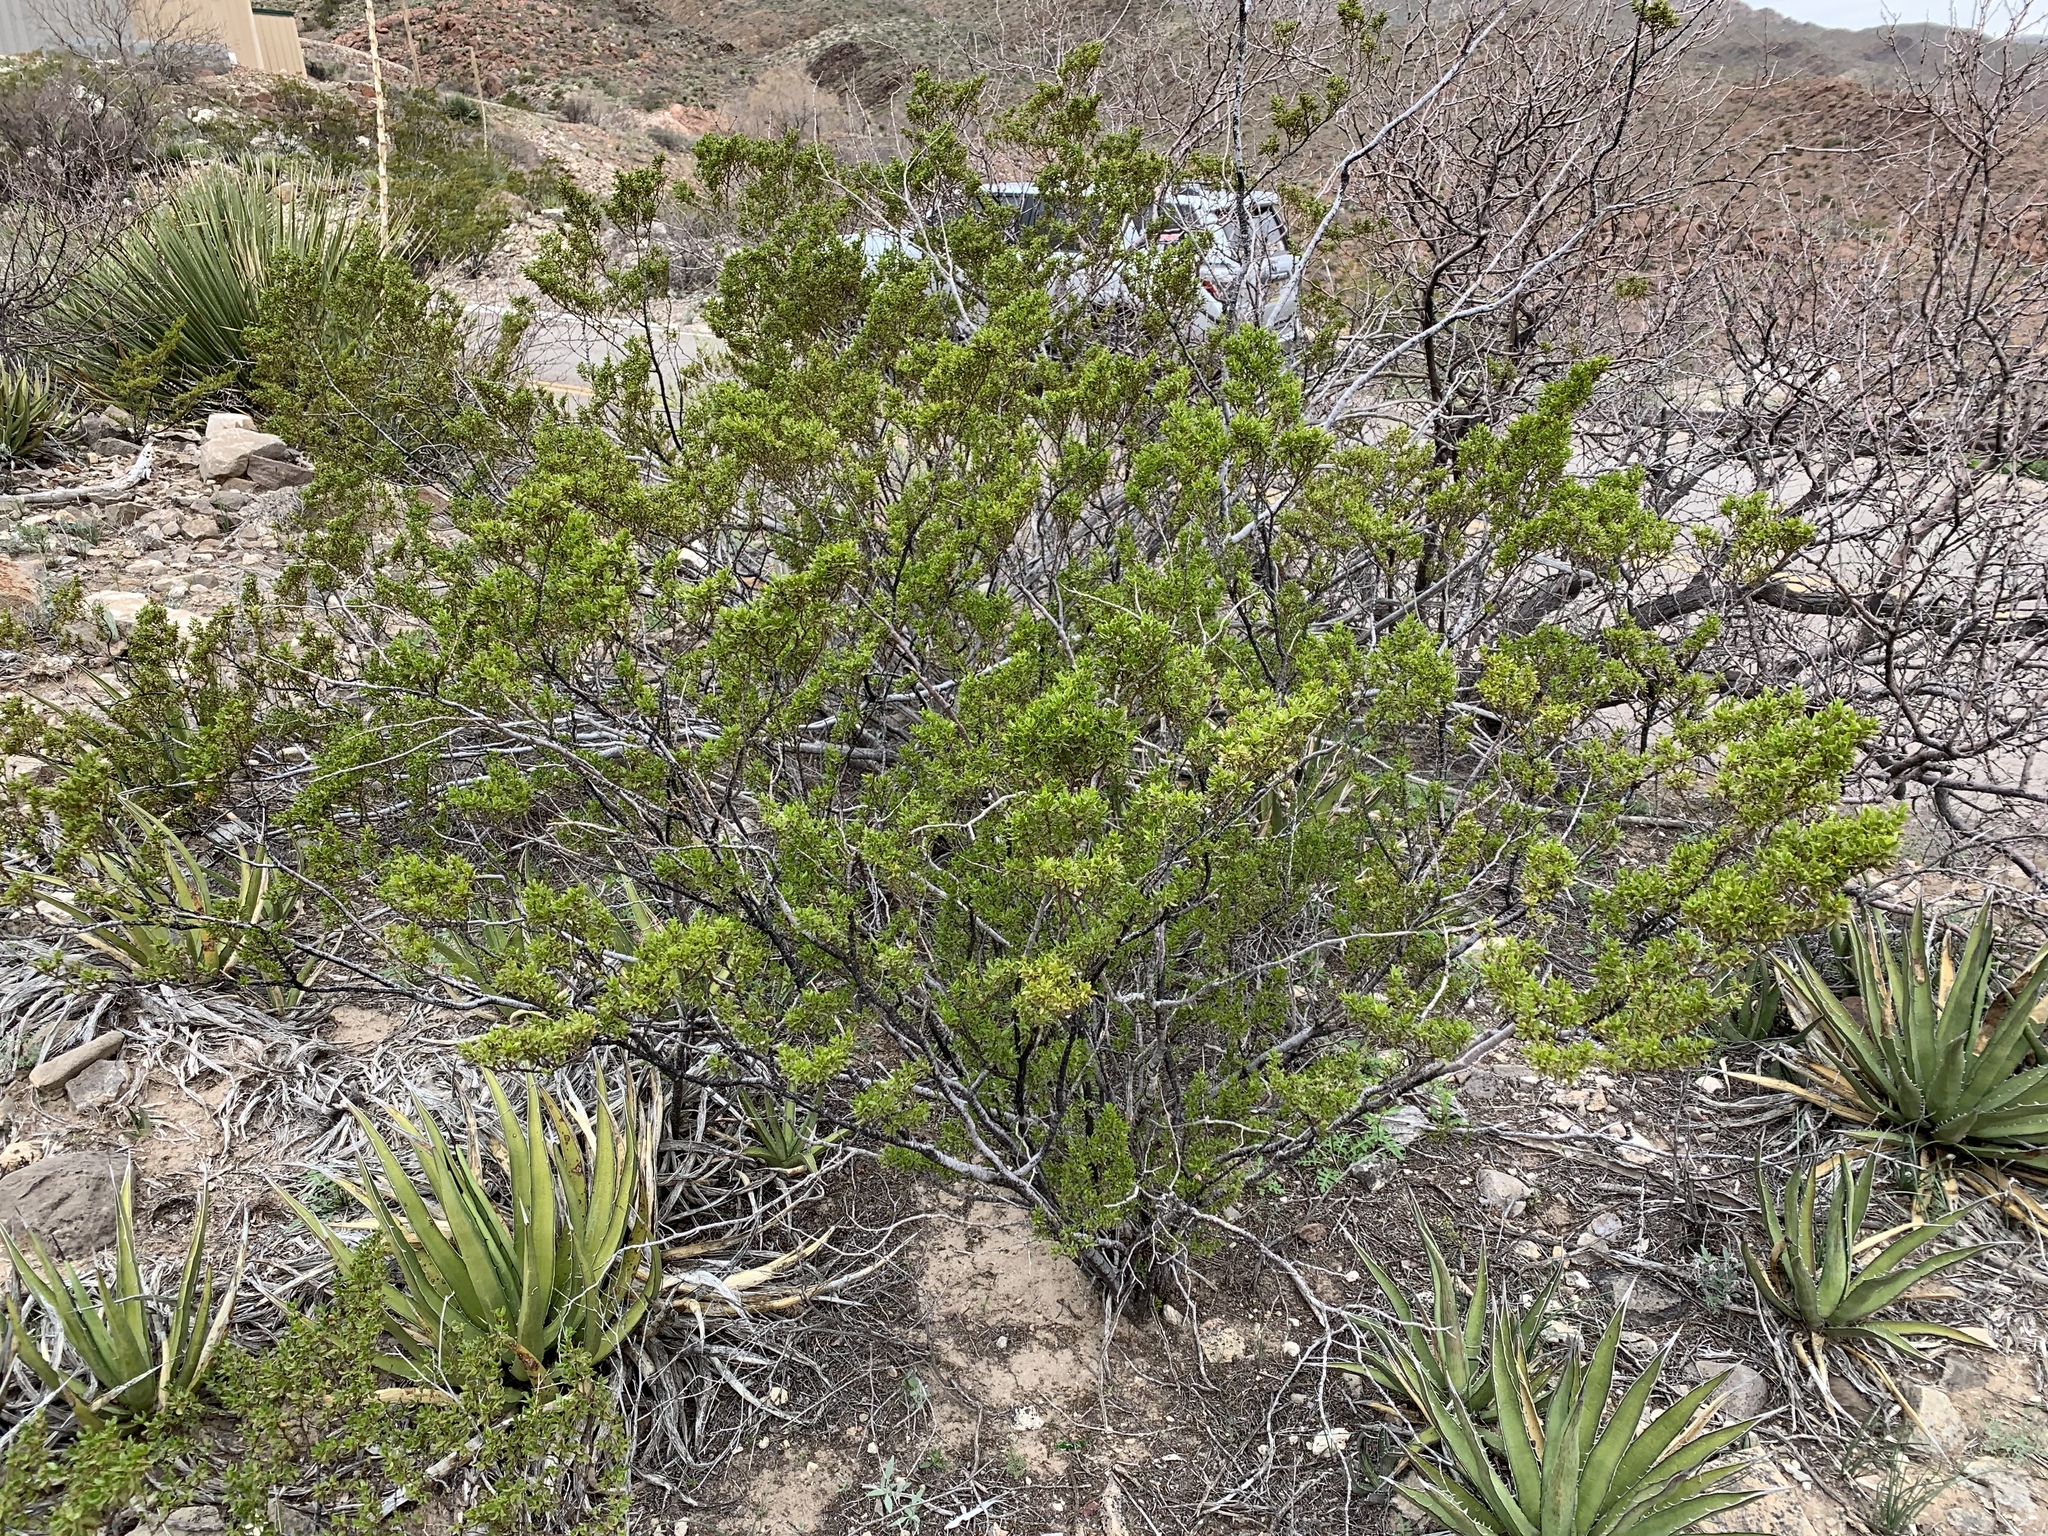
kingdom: Plantae
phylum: Tracheophyta
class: Magnoliopsida
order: Zygophyllales
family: Zygophyllaceae
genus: Larrea
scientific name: Larrea tridentata
